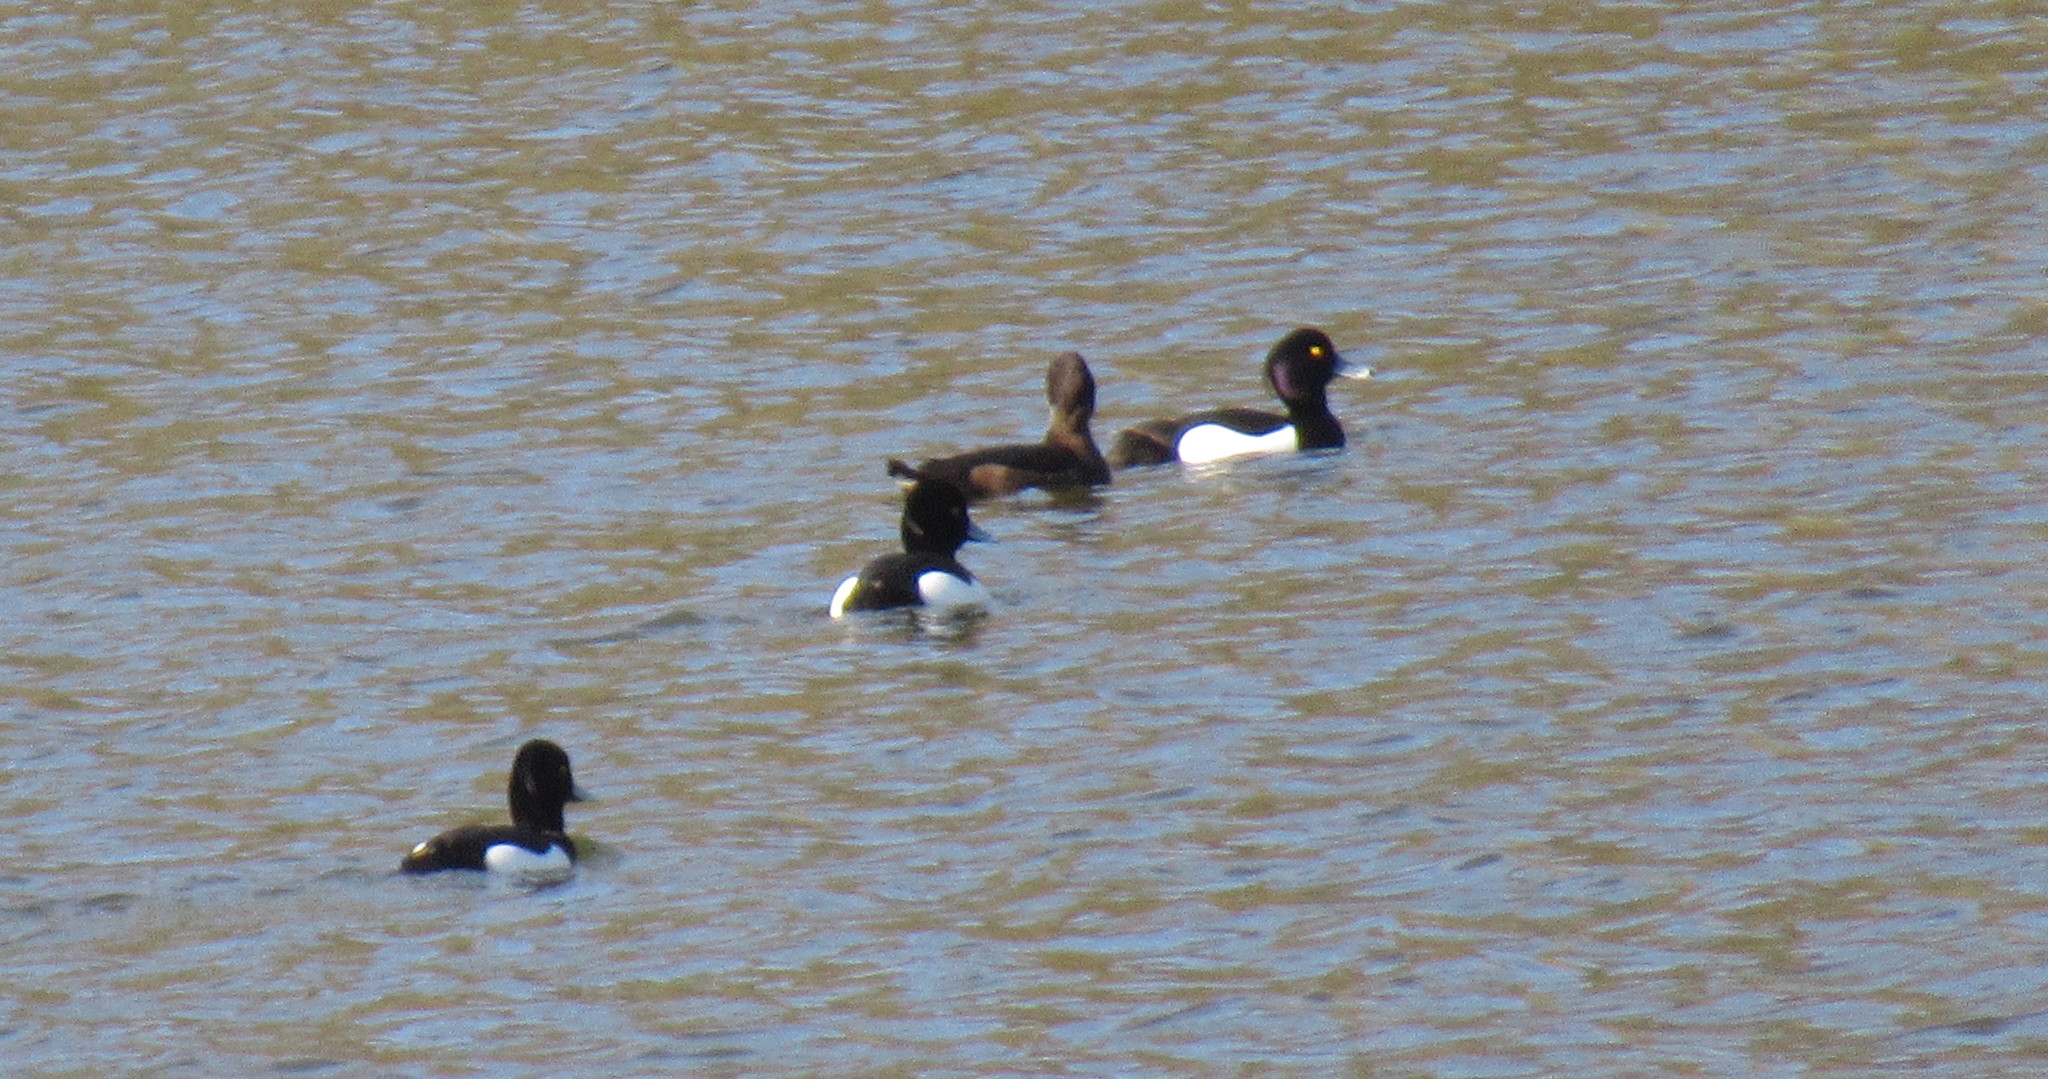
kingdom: Animalia
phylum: Chordata
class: Aves
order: Anseriformes
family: Anatidae
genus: Aythya
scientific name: Aythya fuligula
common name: Tufted duck
